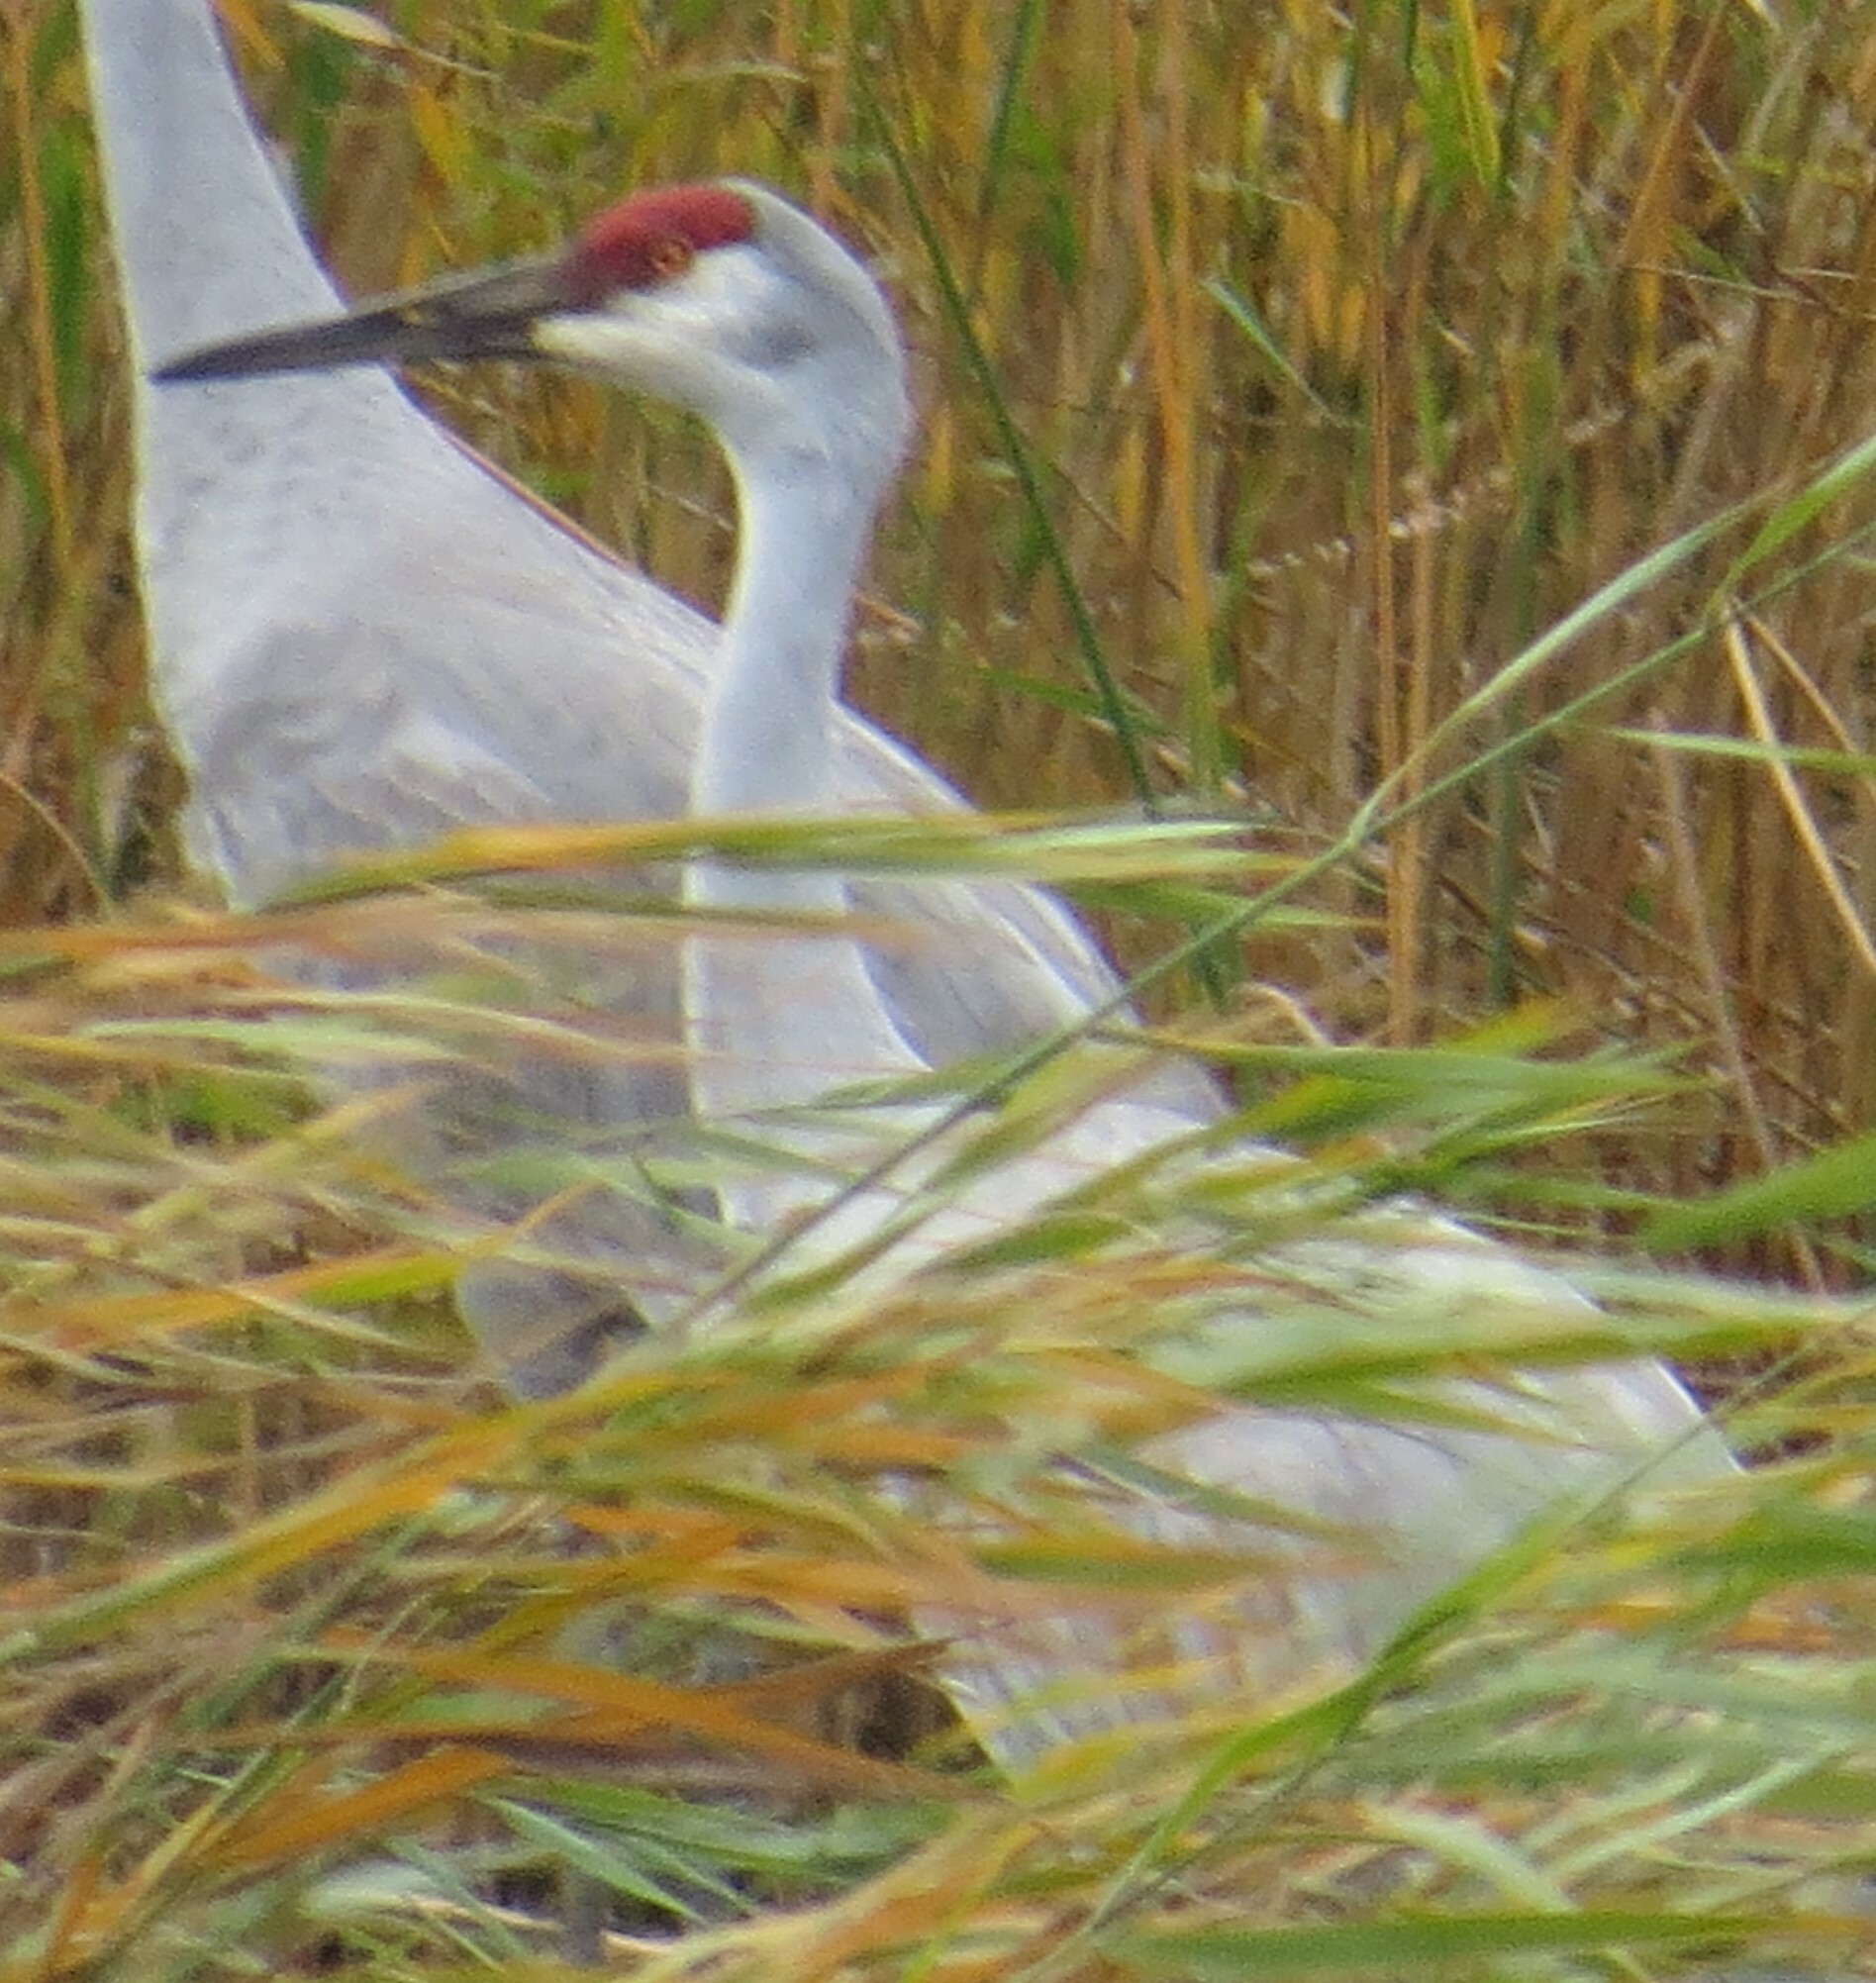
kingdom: Animalia
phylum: Chordata
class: Aves
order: Gruiformes
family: Gruidae
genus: Grus
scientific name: Grus canadensis
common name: Sandhill crane
